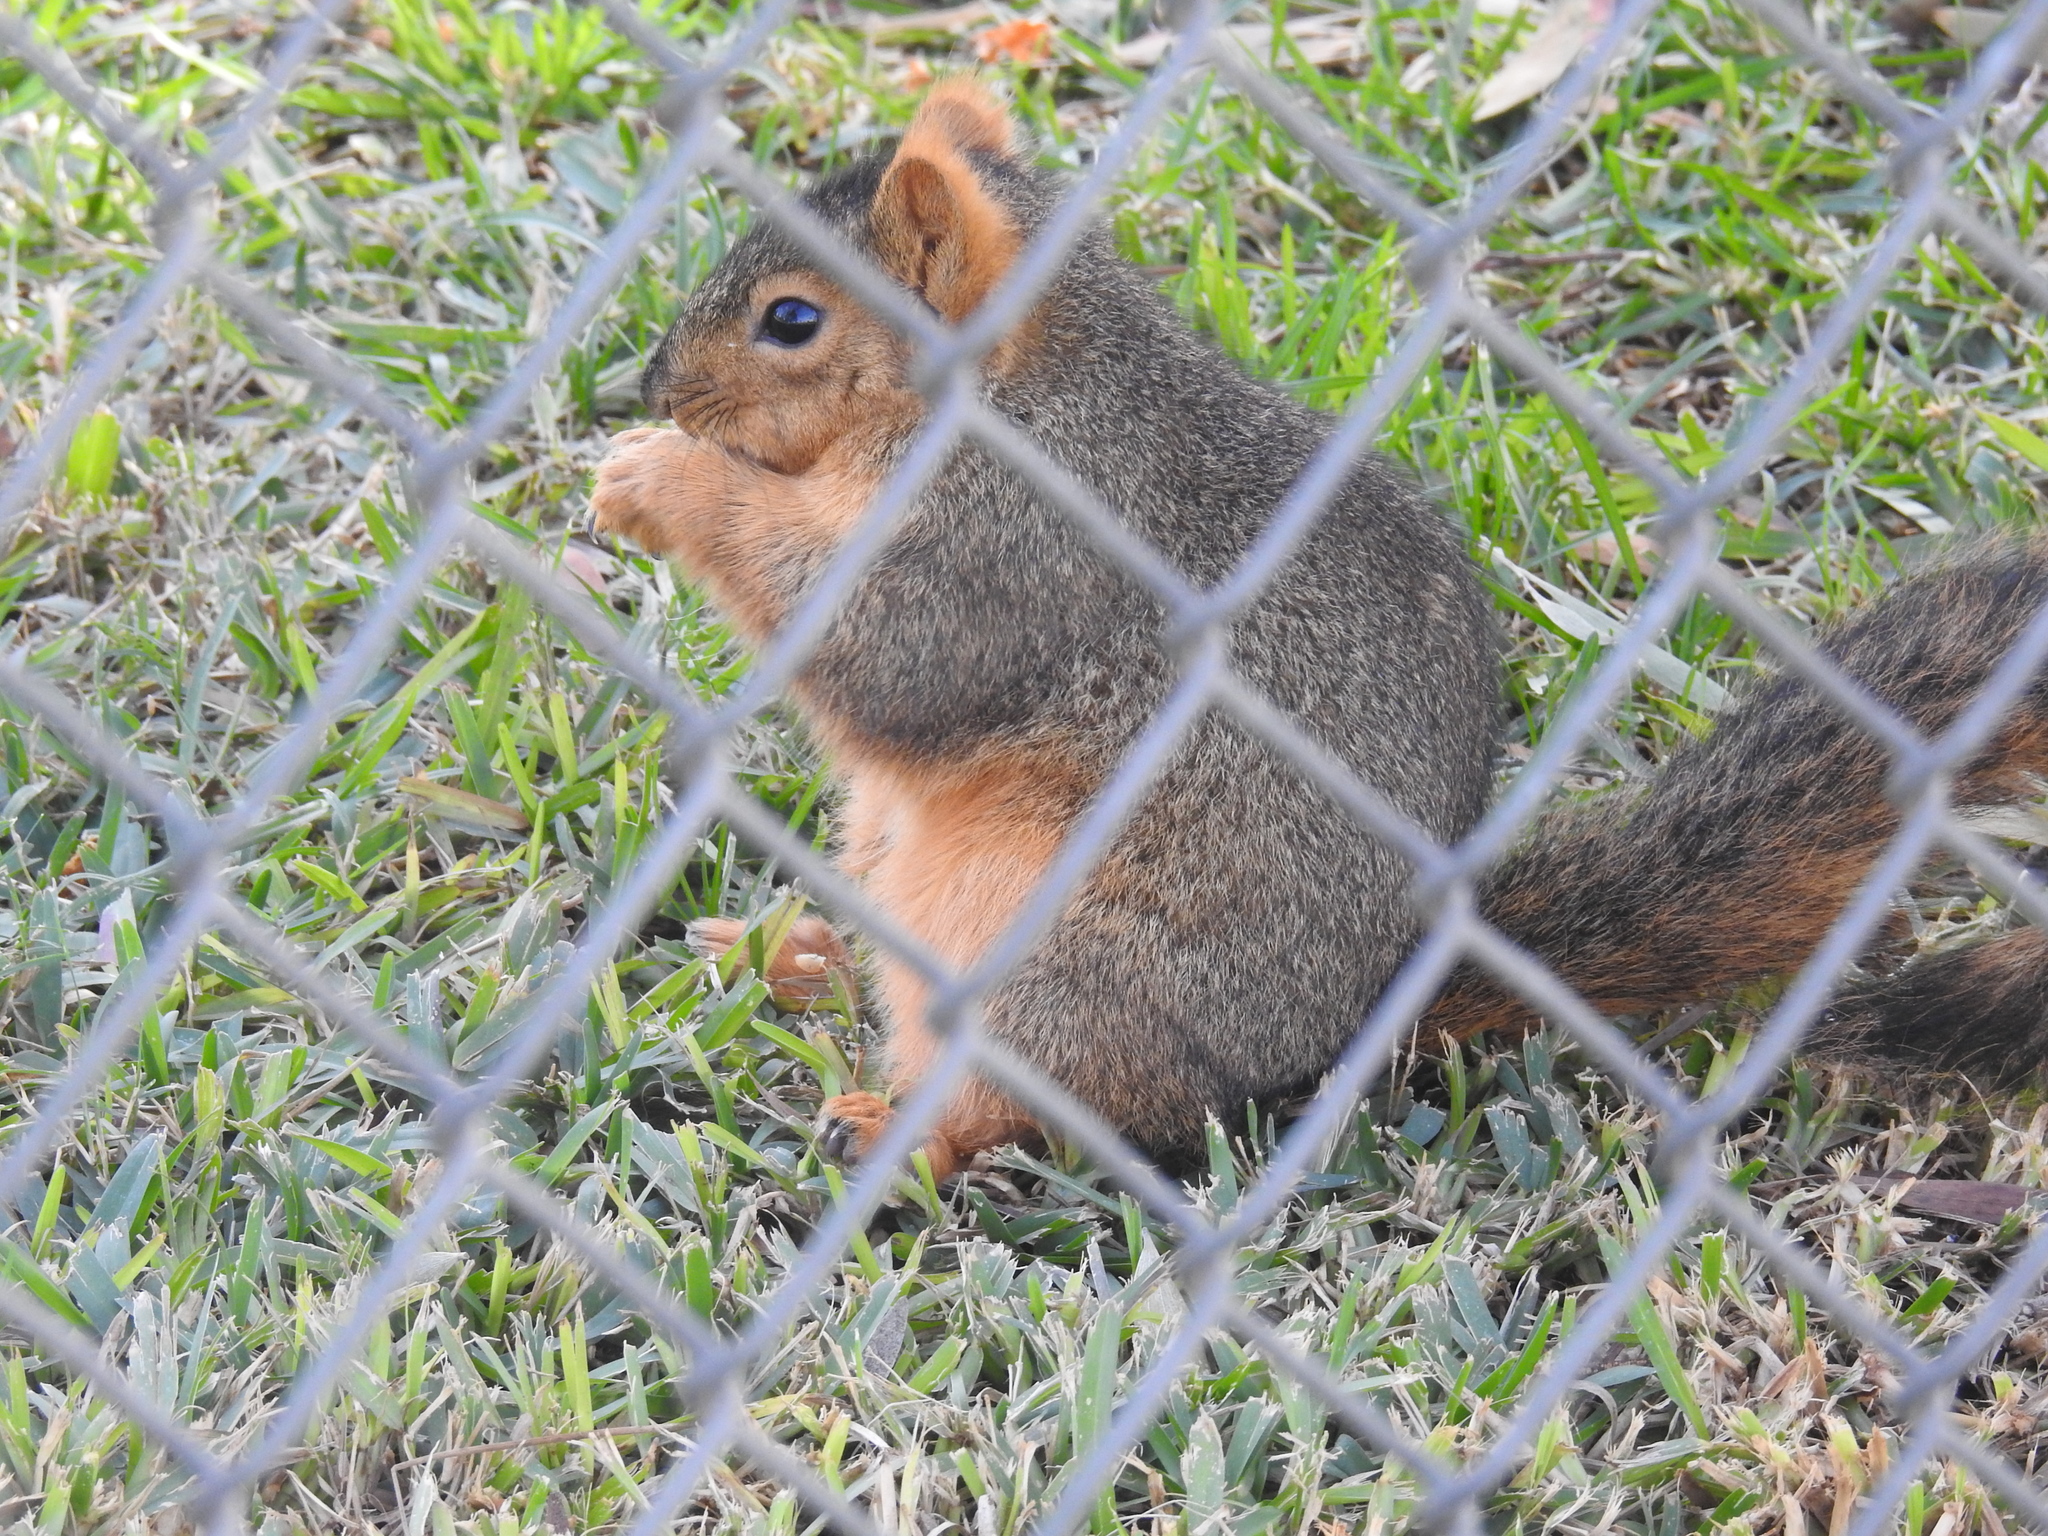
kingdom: Animalia
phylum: Chordata
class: Mammalia
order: Rodentia
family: Sciuridae
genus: Sciurus
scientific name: Sciurus niger
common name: Fox squirrel
